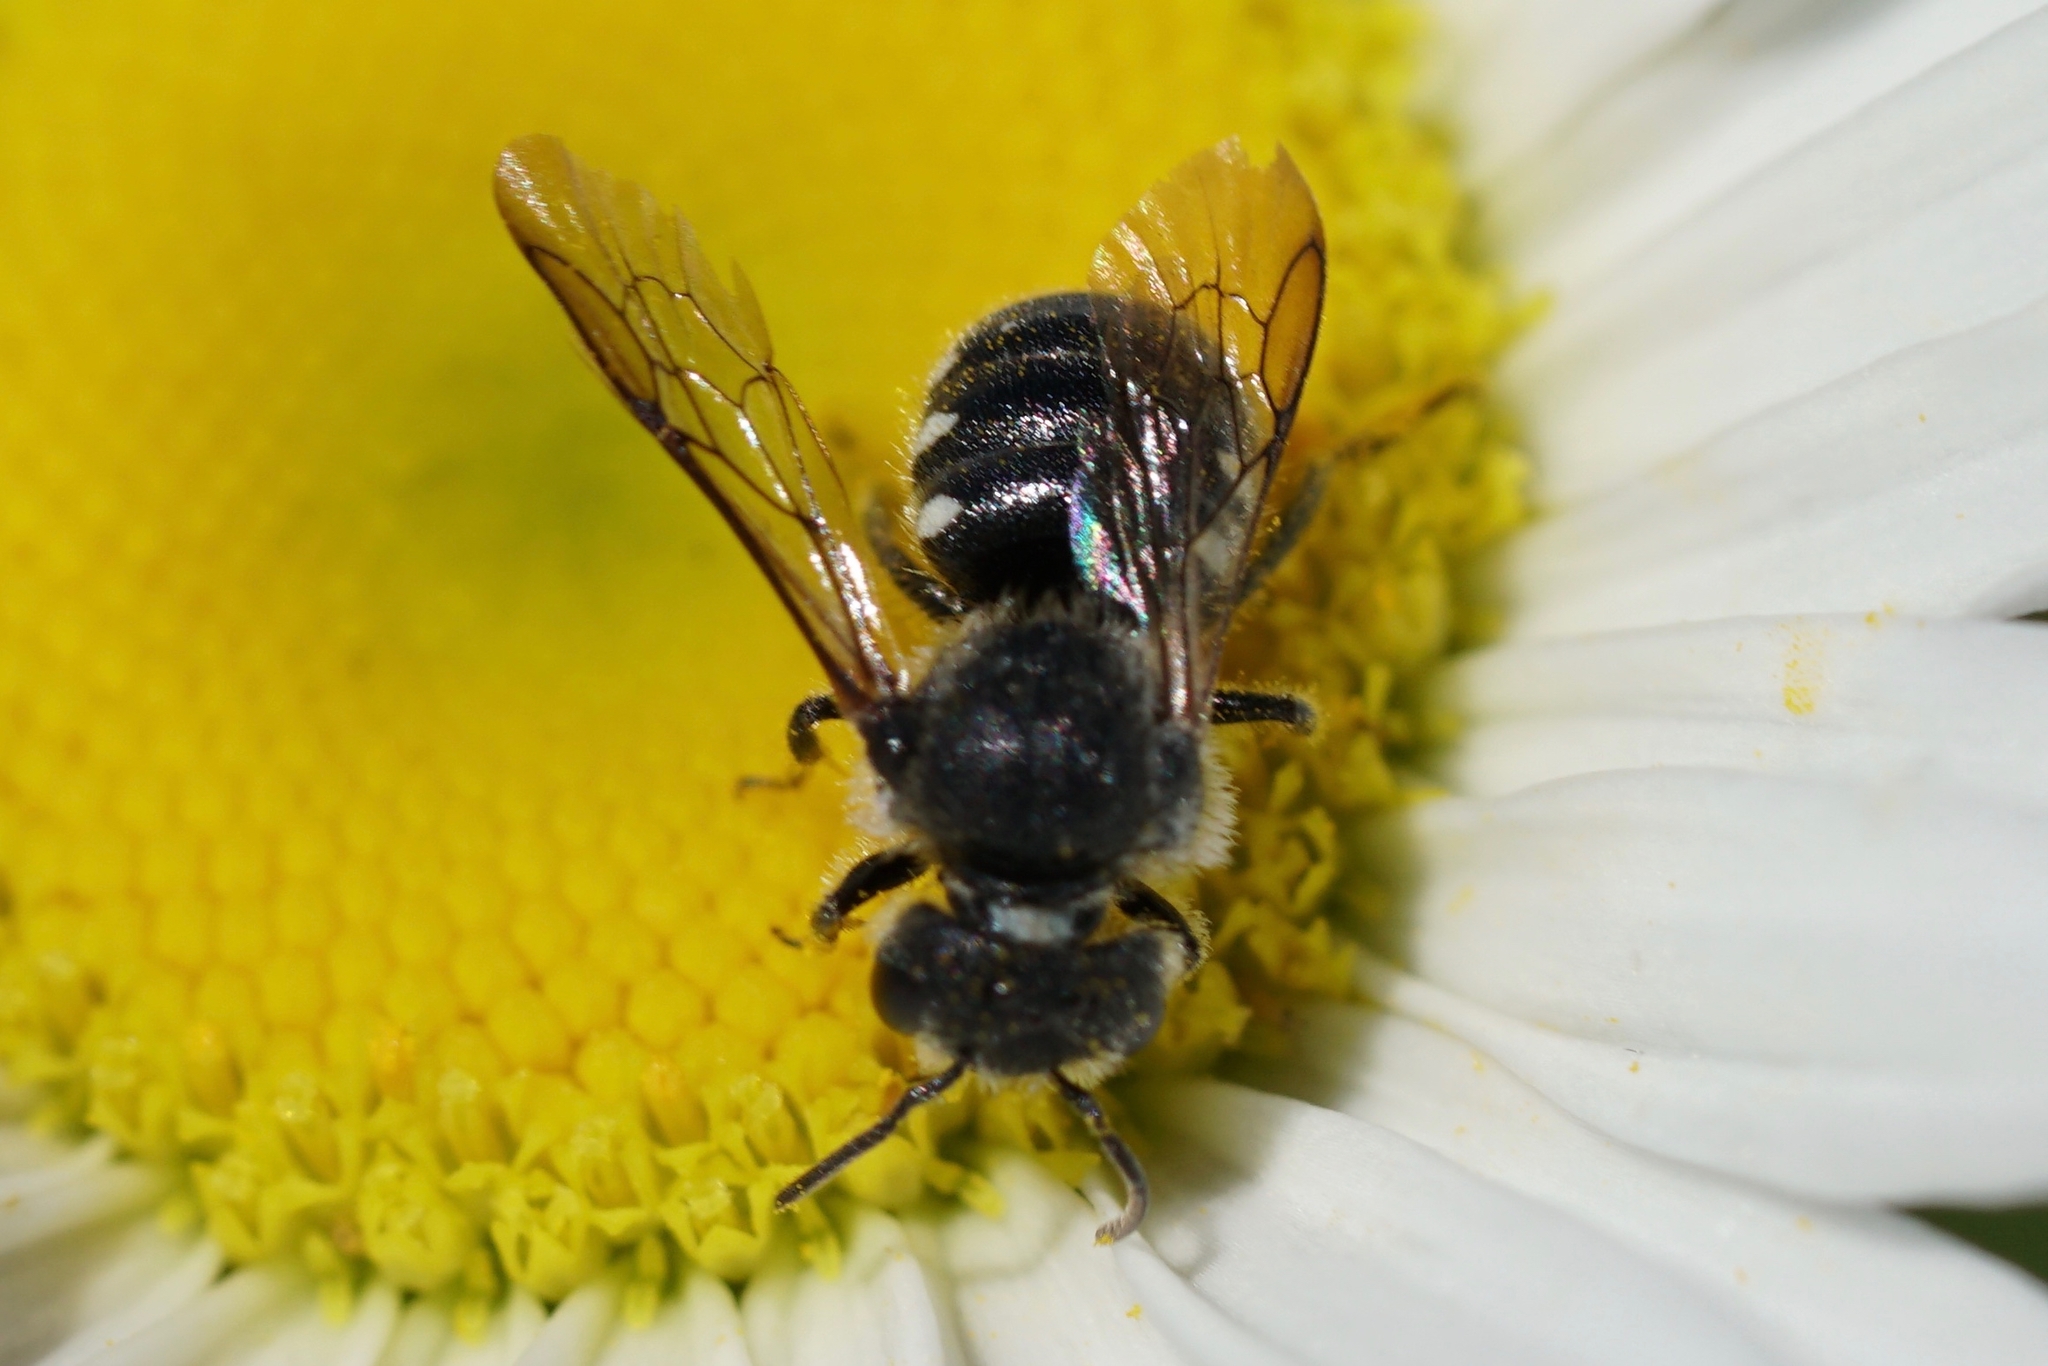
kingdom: Animalia
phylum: Arthropoda
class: Insecta
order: Hymenoptera
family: Megachilidae
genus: Stelis
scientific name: Stelis lateralis
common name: Spot-sided dark bee
